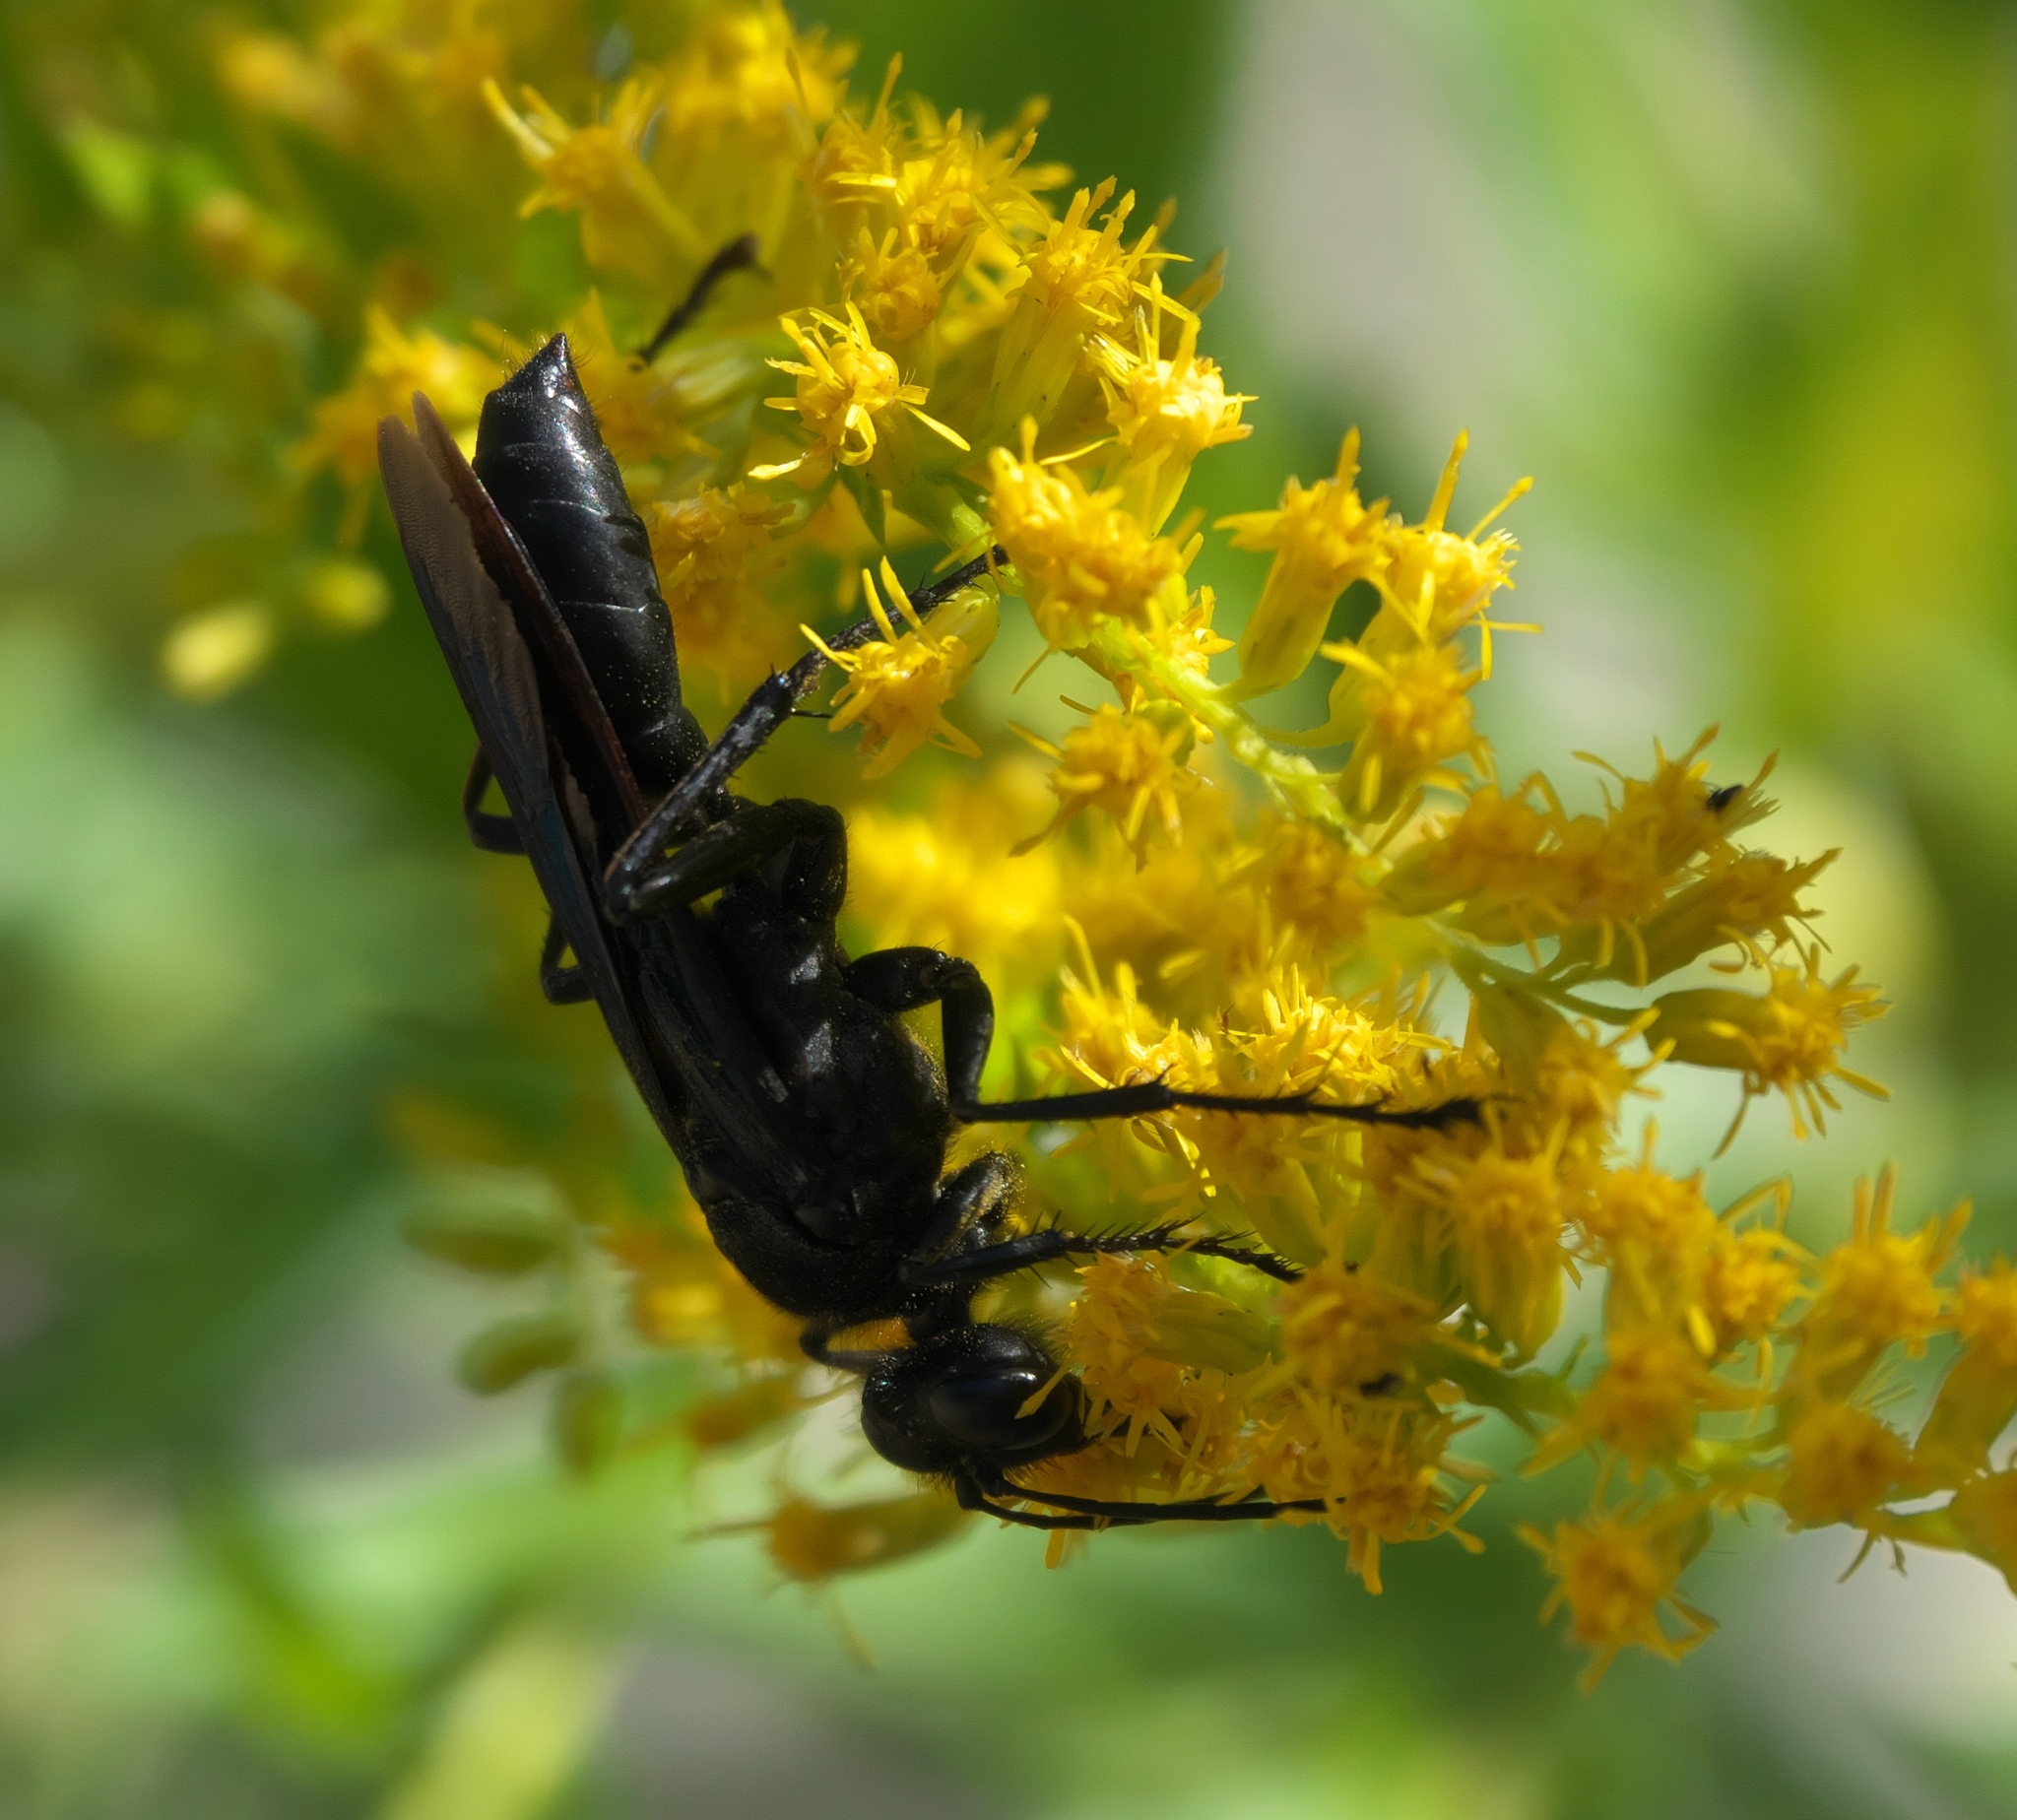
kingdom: Animalia
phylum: Arthropoda
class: Insecta
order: Hymenoptera
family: Sphecidae
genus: Sphex
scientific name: Sphex pensylvanicus
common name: Great black digger wasp
